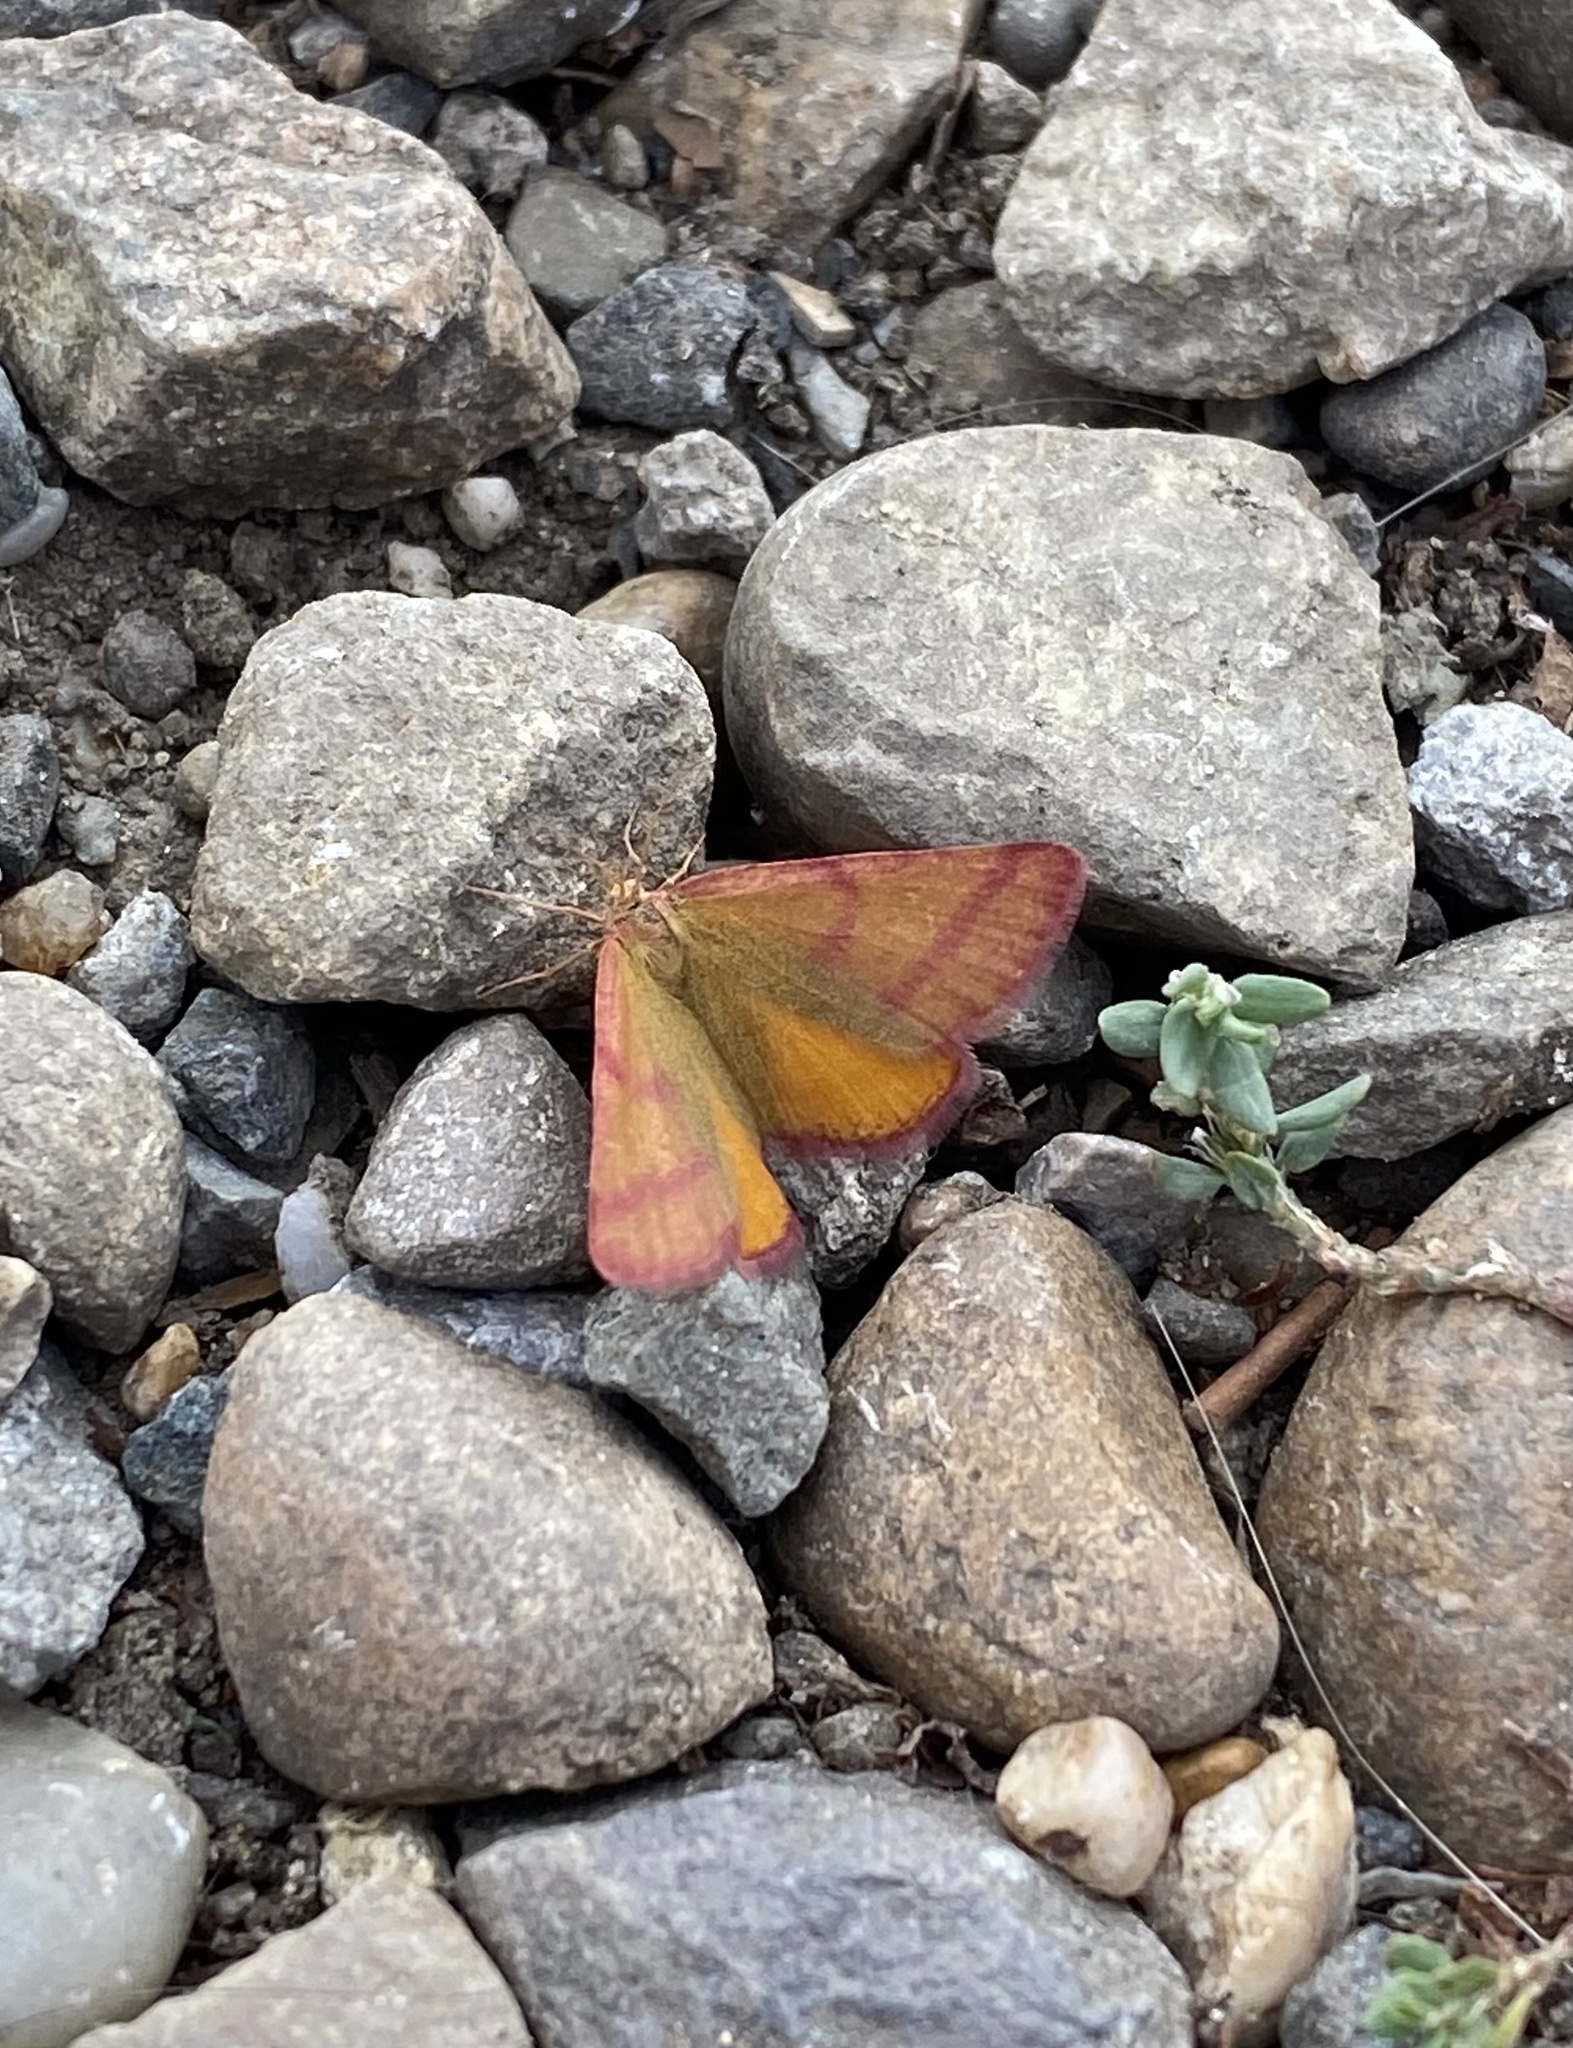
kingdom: Animalia
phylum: Arthropoda
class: Insecta
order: Lepidoptera
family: Geometridae
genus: Lythria
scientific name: Lythria purpuraria
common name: Purple-barred yellow
